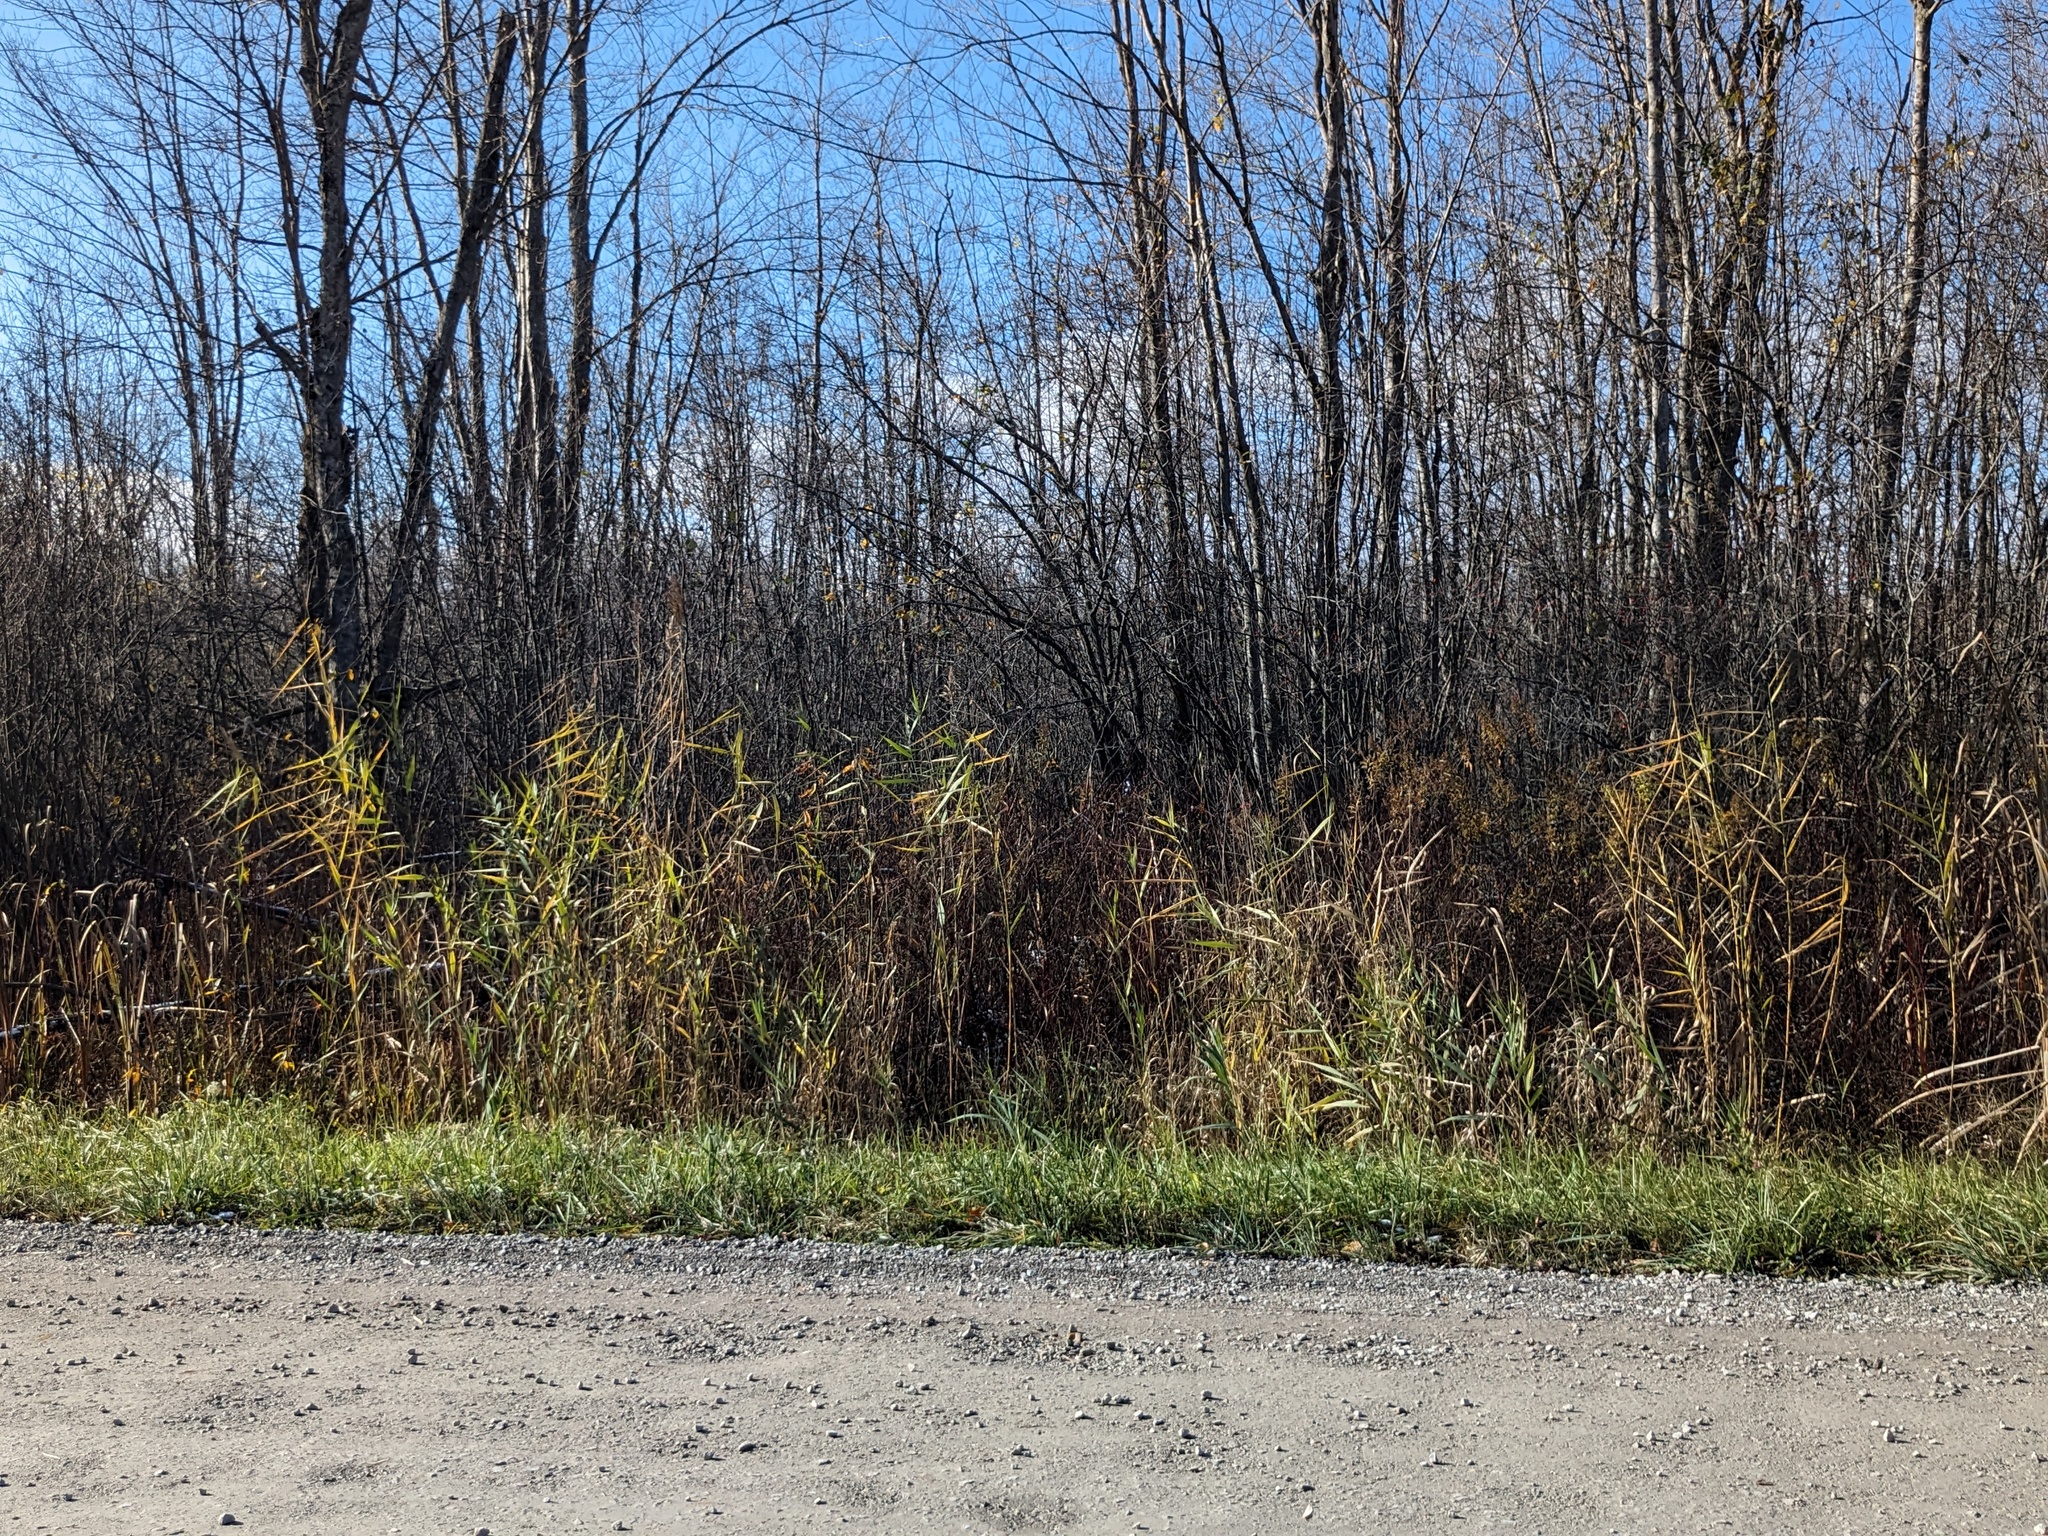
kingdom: Plantae
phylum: Tracheophyta
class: Liliopsida
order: Poales
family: Poaceae
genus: Phragmites
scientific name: Phragmites australis
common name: Common reed
